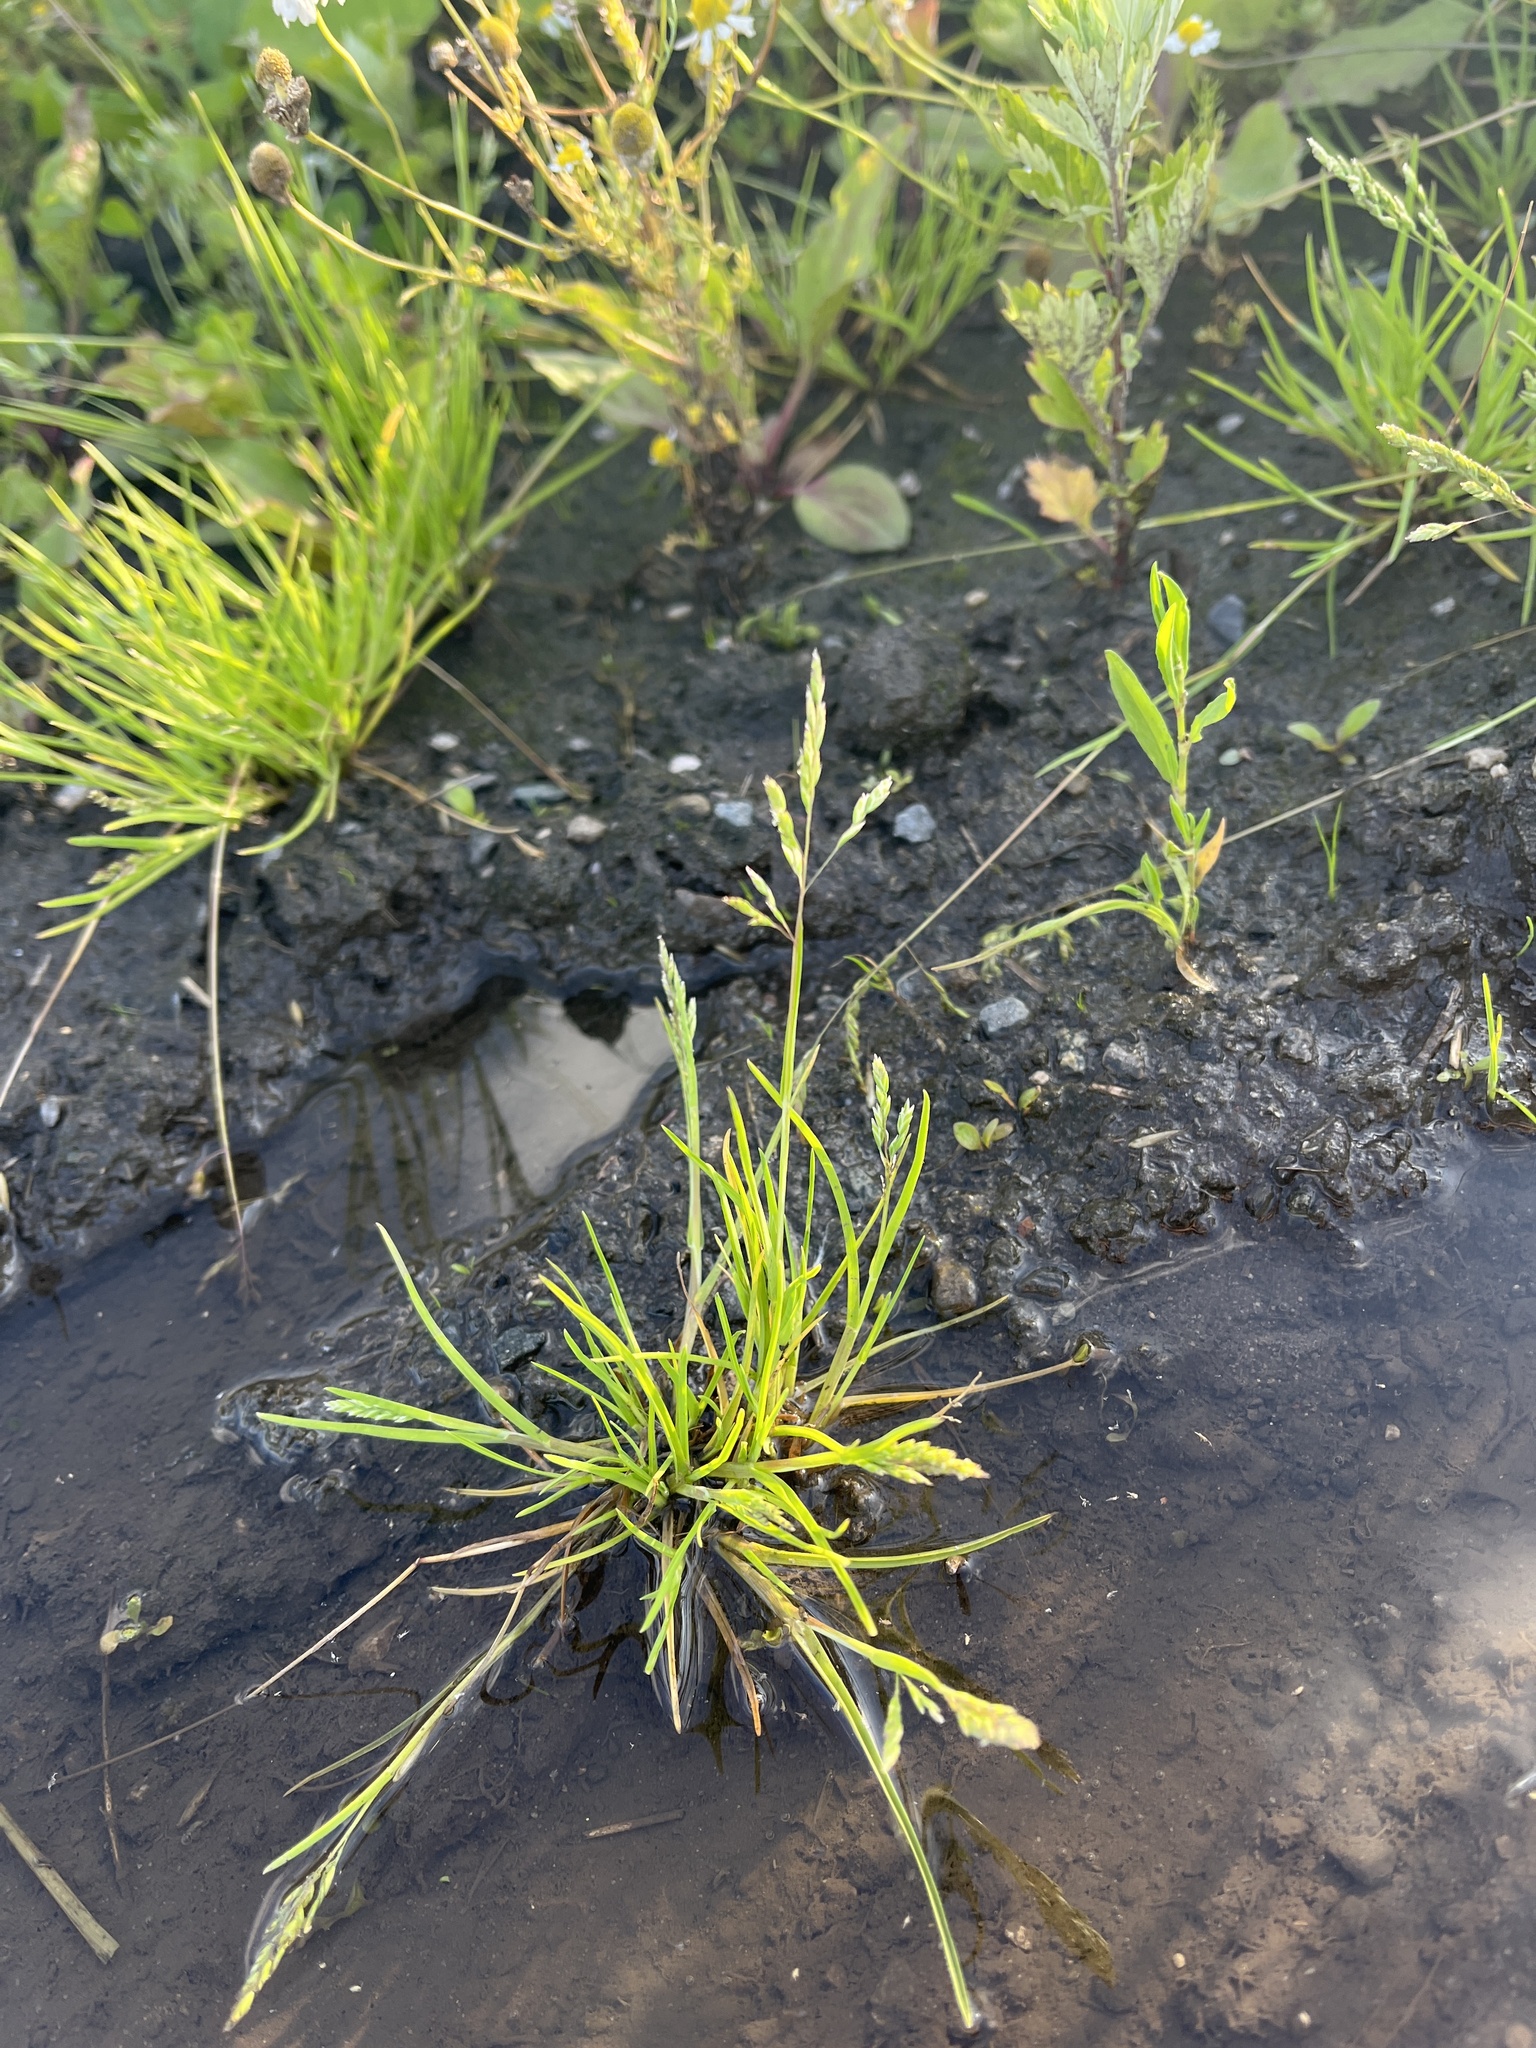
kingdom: Plantae
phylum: Tracheophyta
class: Liliopsida
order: Poales
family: Poaceae
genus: Poa
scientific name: Poa annua
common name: Annual bluegrass
